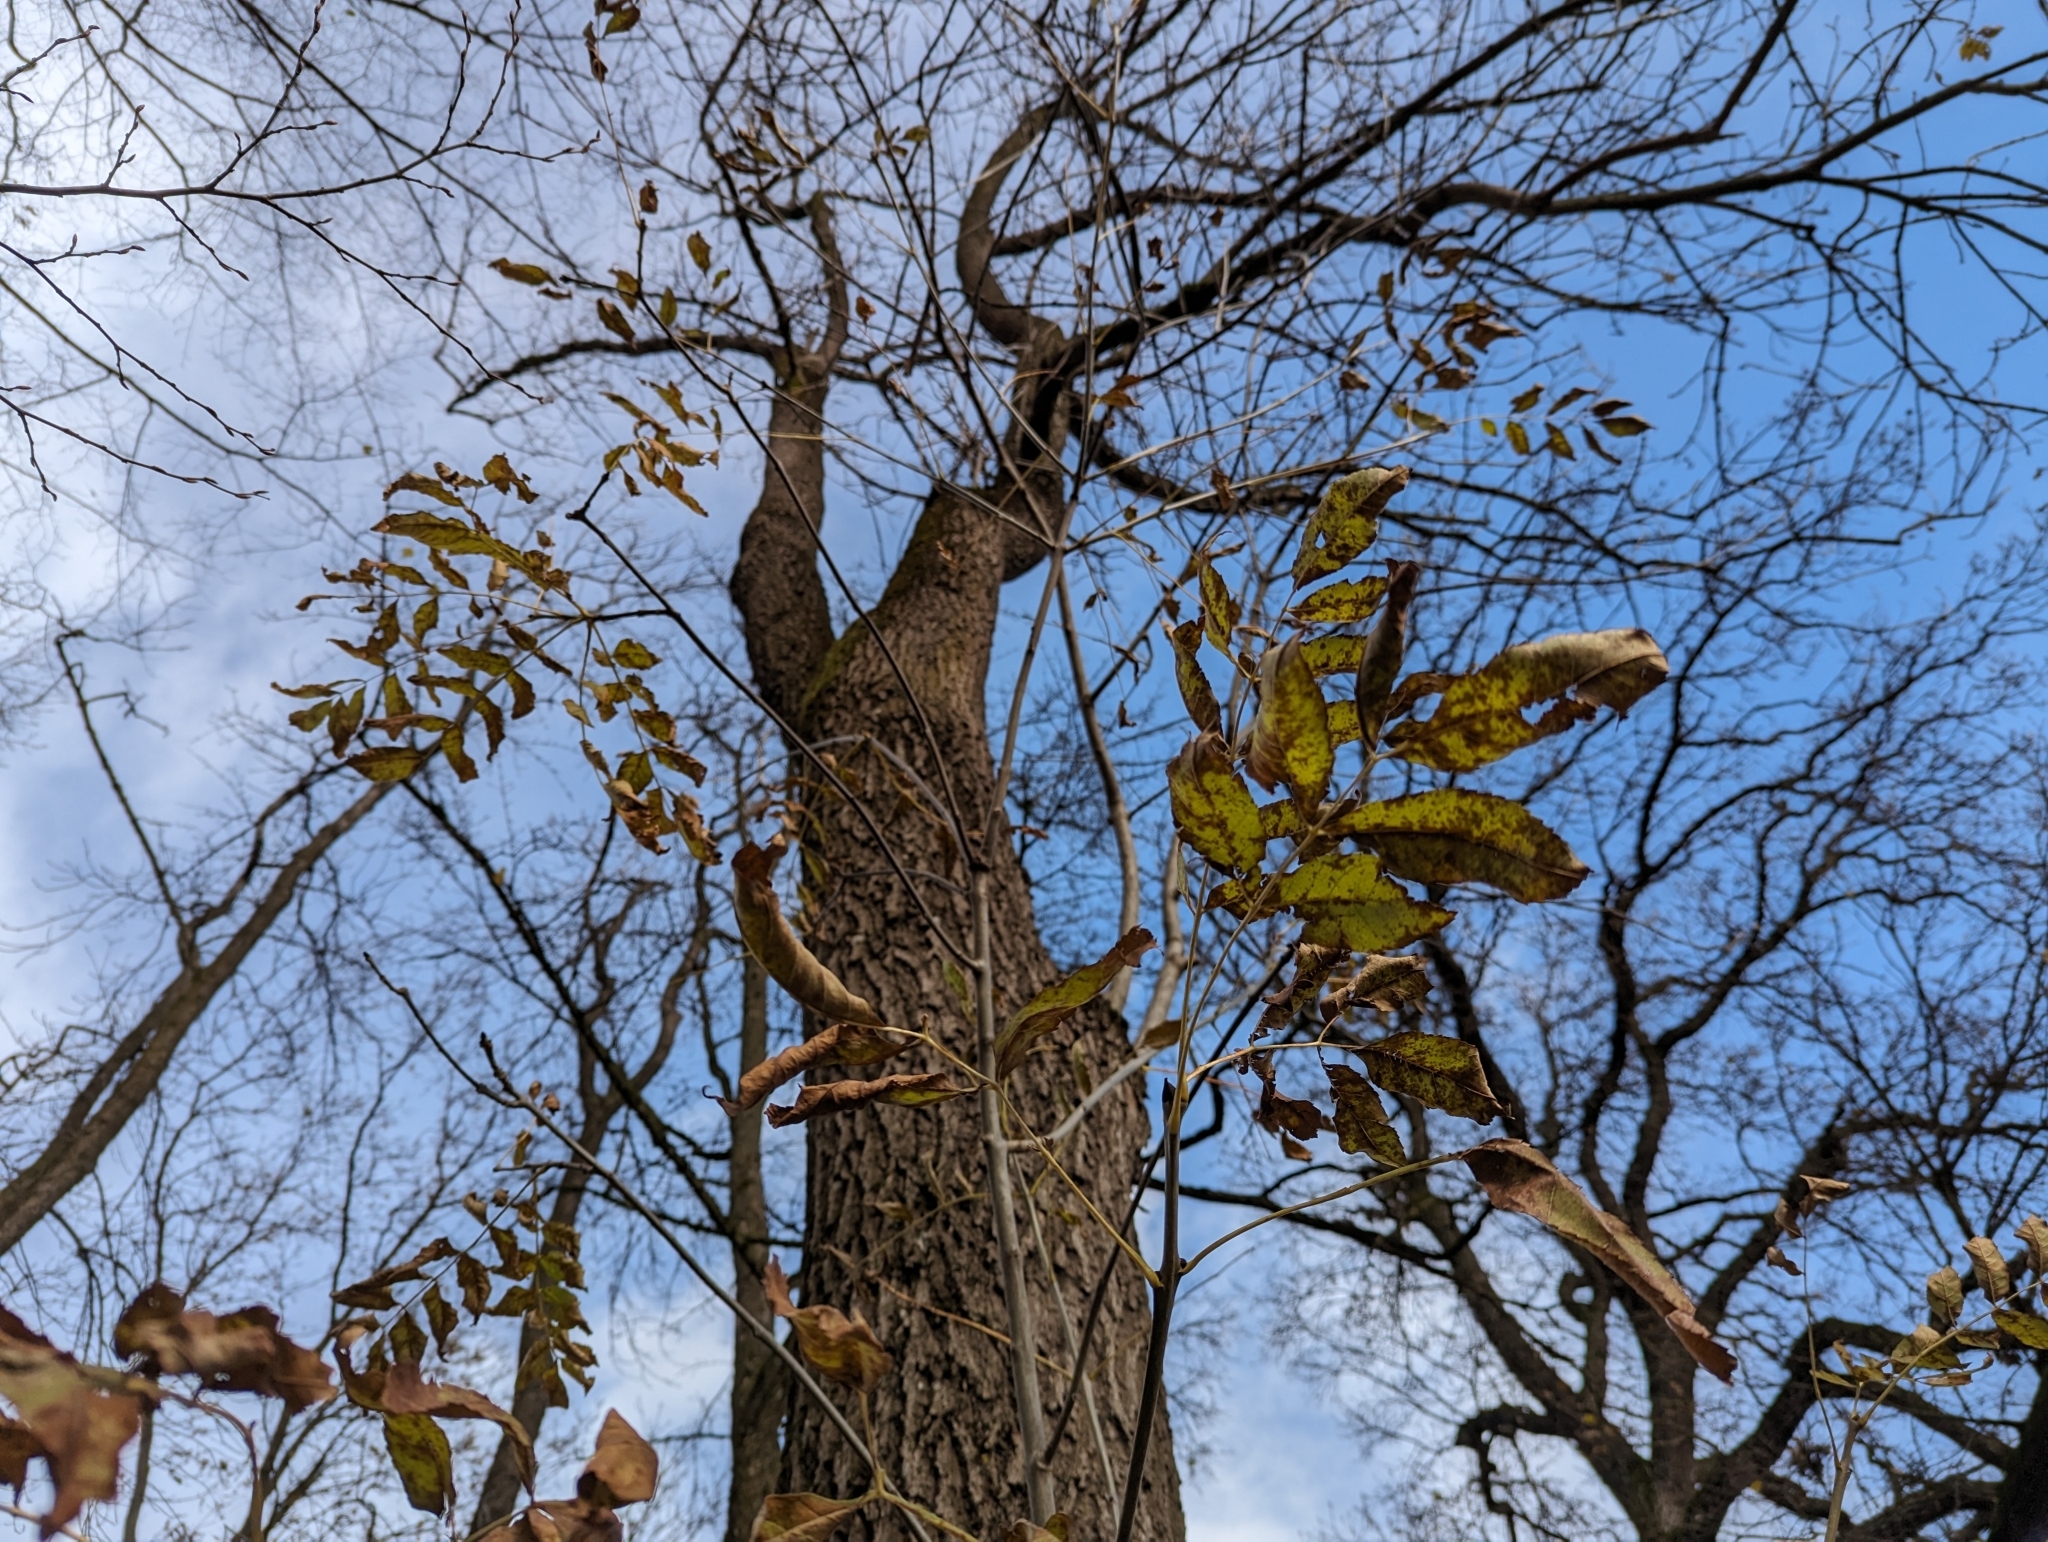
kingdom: Plantae
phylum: Tracheophyta
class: Magnoliopsida
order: Lamiales
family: Oleaceae
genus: Fraxinus
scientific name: Fraxinus excelsior
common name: European ash
